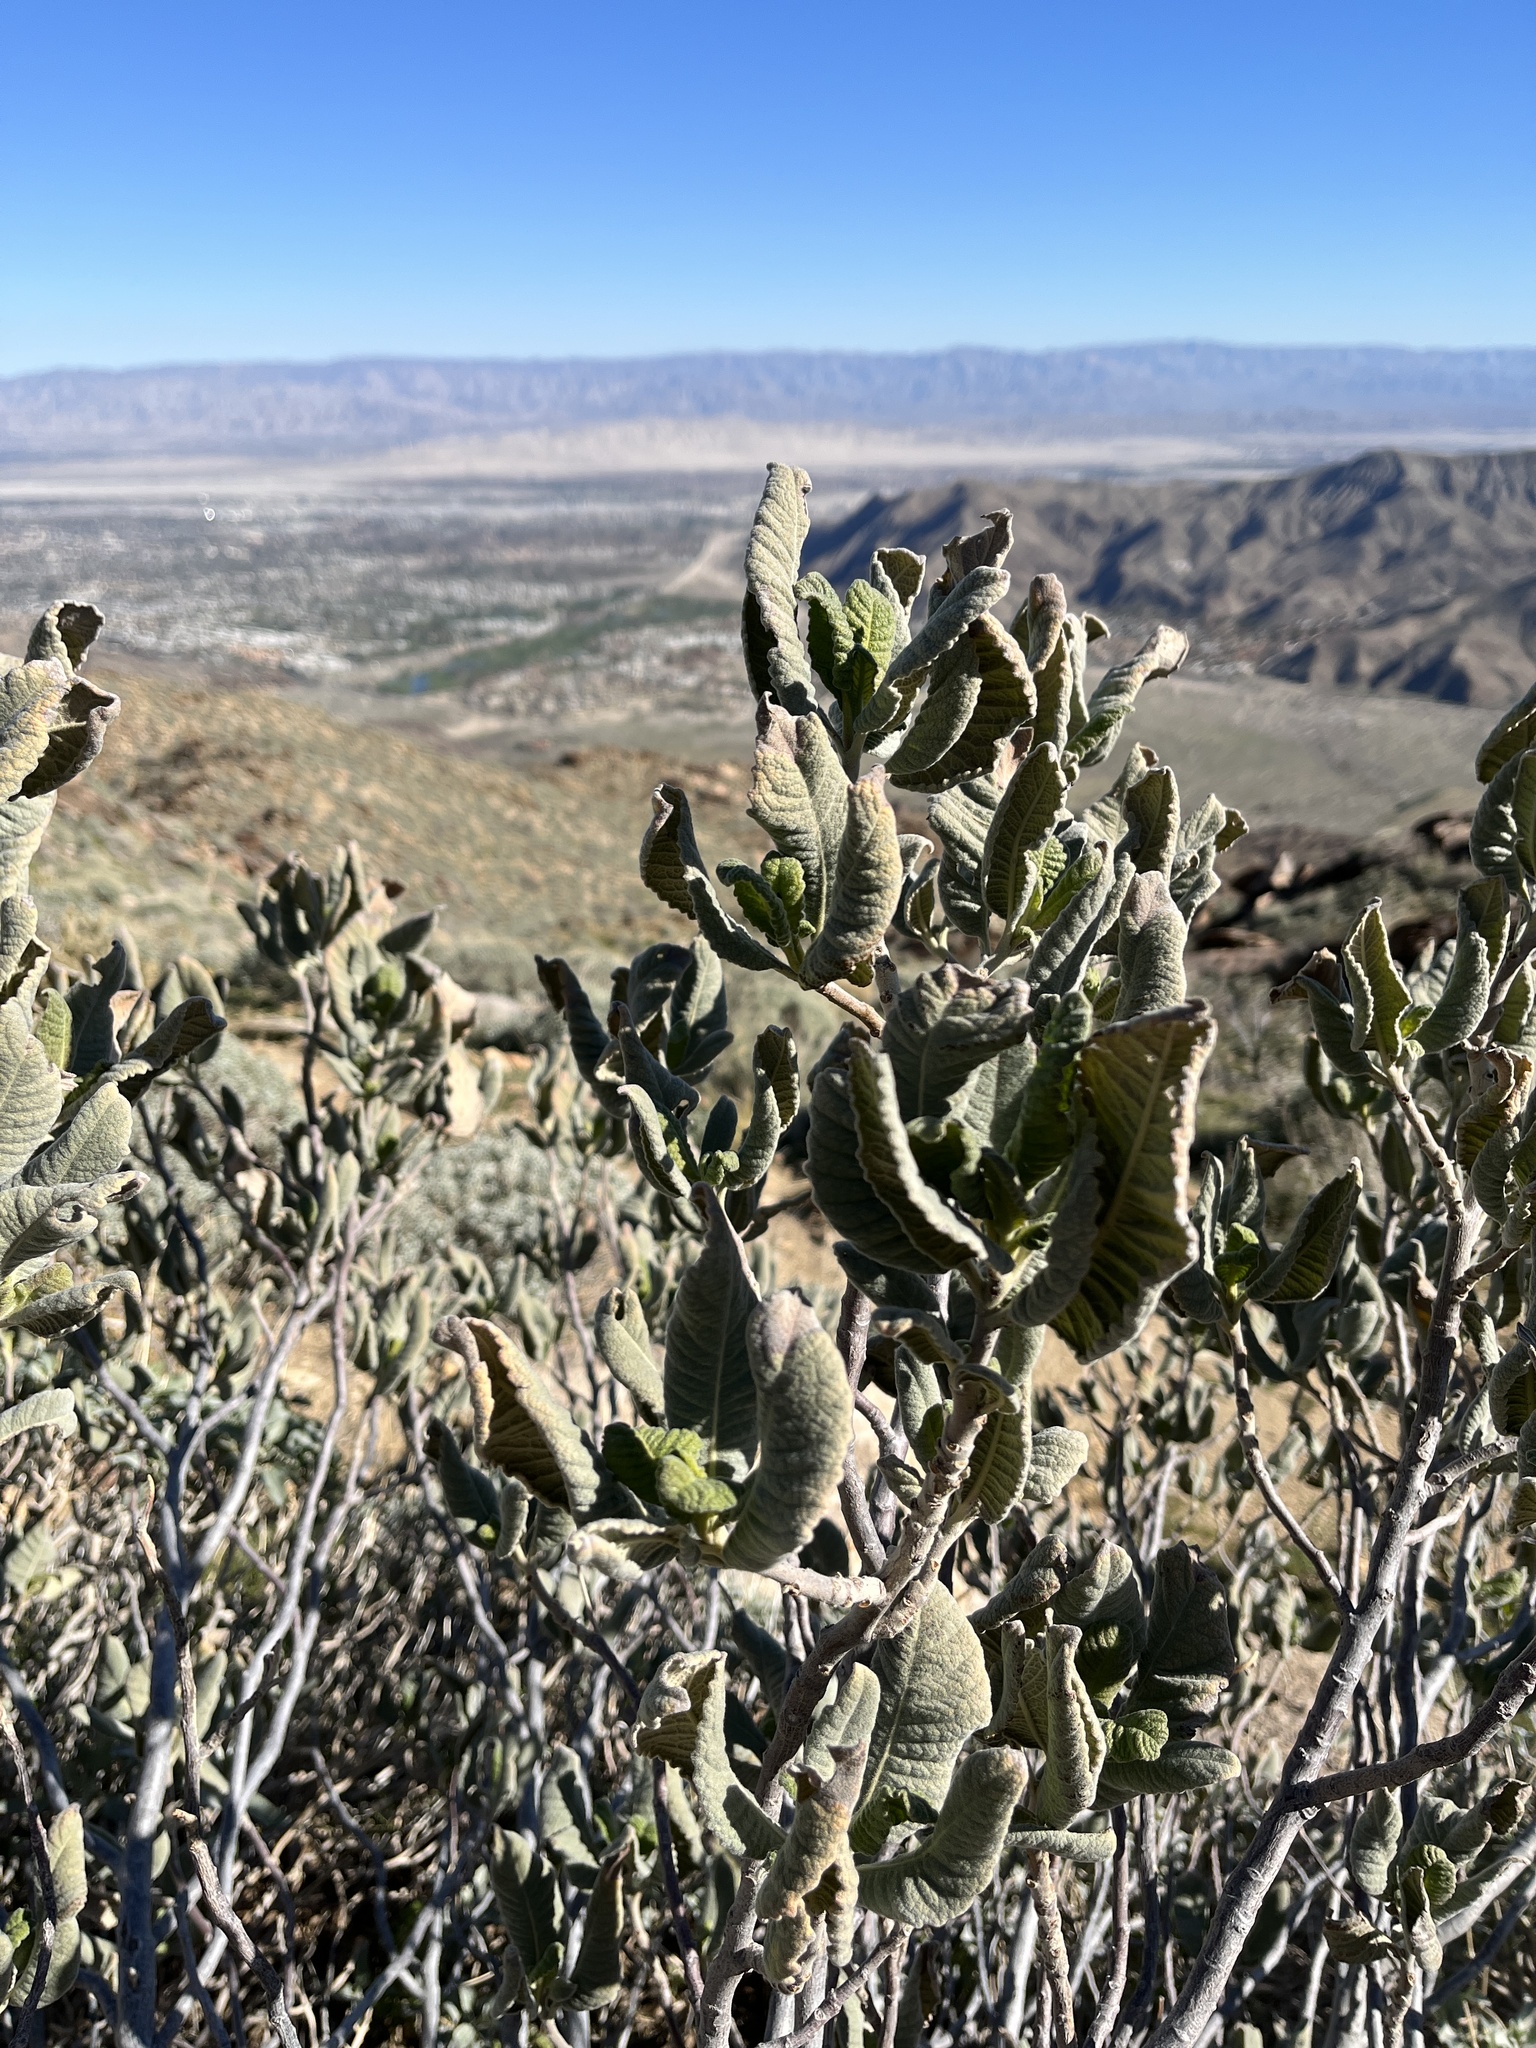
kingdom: Plantae
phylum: Tracheophyta
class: Magnoliopsida
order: Boraginales
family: Namaceae
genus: Eriodictyon
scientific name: Eriodictyon crassifolium
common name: Thick-leaf yerba-santa
